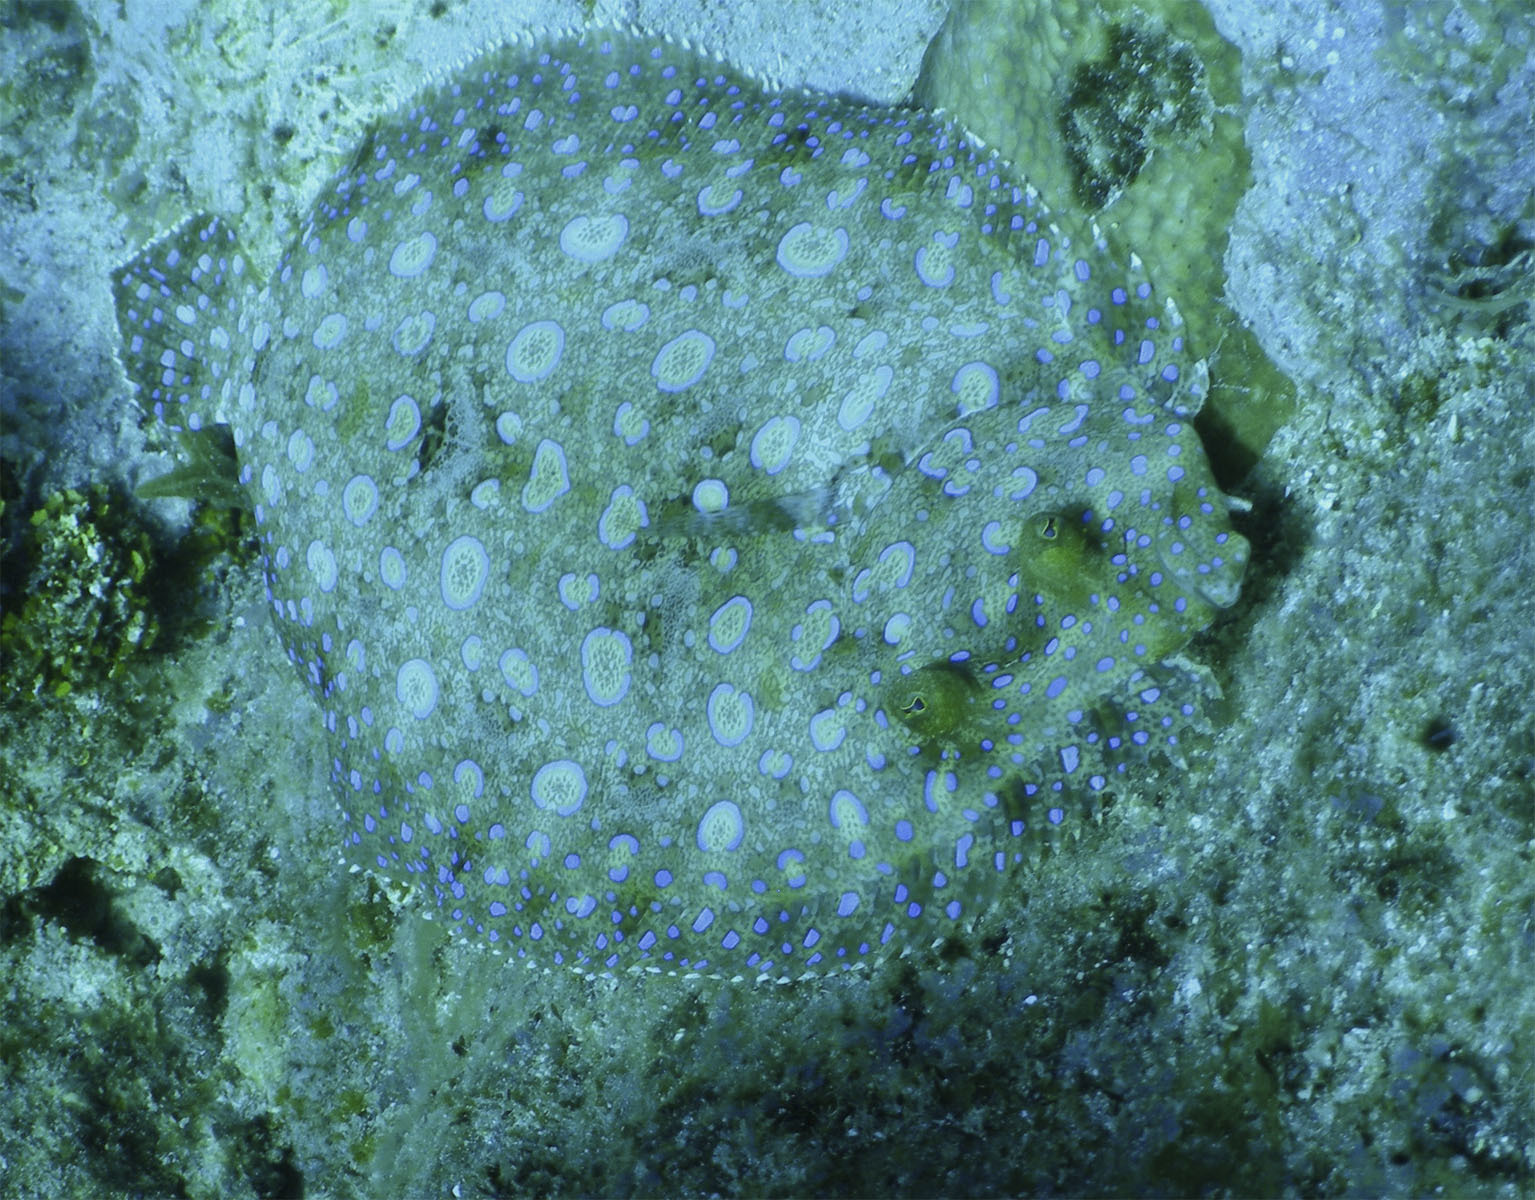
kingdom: Animalia
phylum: Chordata
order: Pleuronectiformes
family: Bothidae
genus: Bothus
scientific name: Bothus lunatus
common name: Peacock flounder
